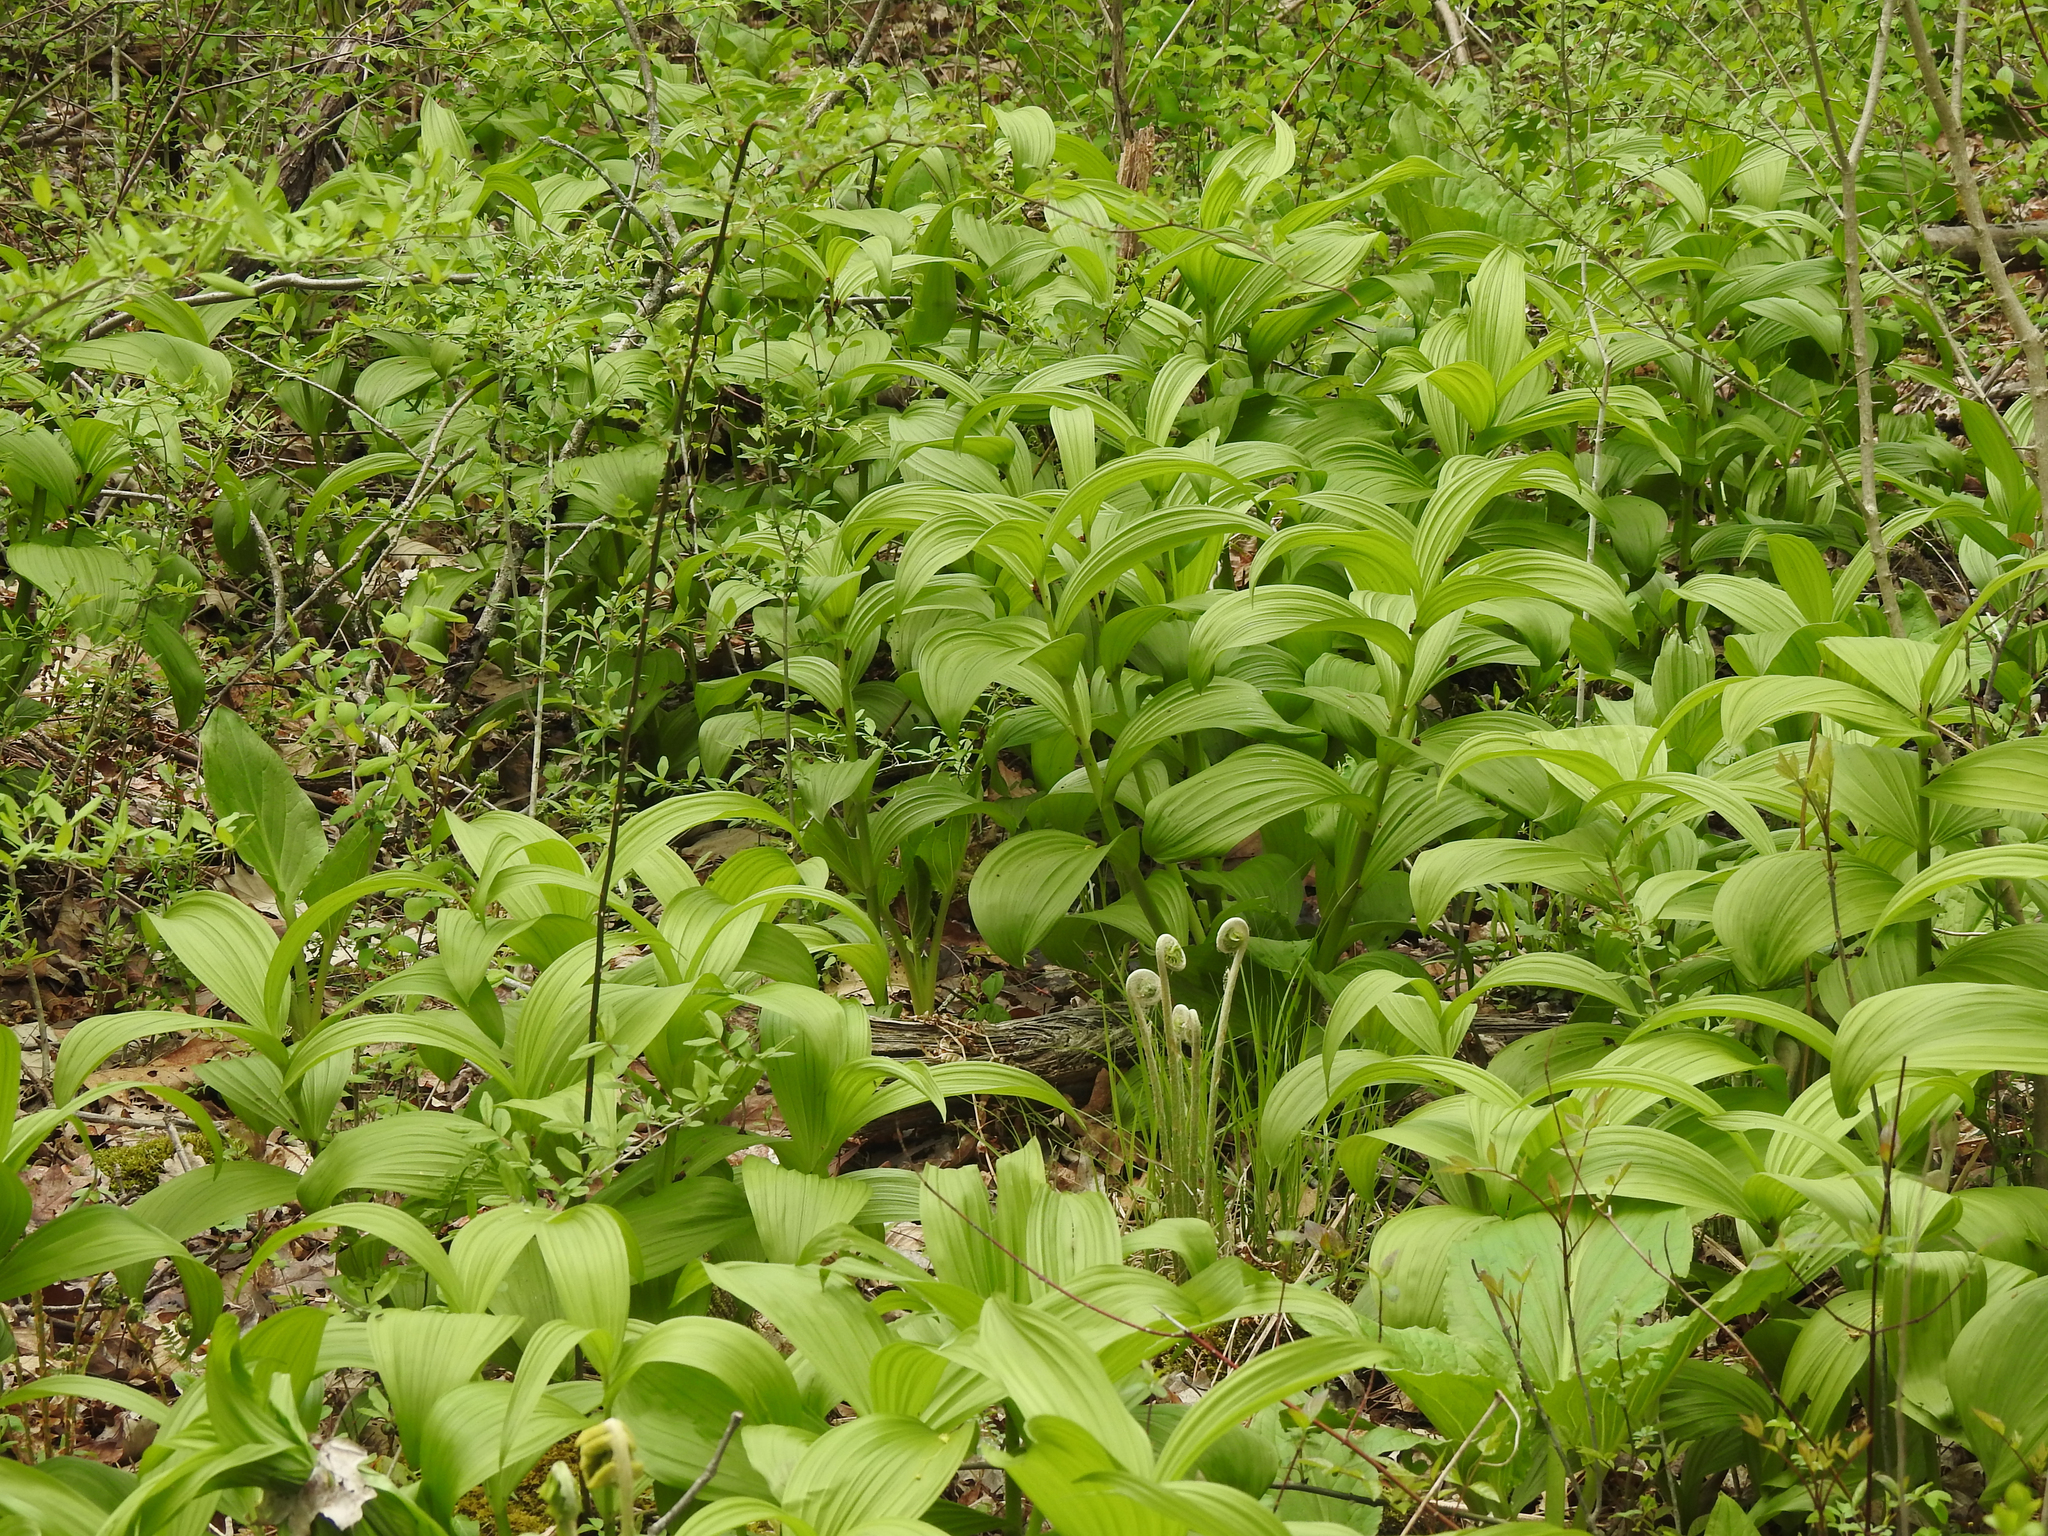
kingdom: Plantae
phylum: Tracheophyta
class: Liliopsida
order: Liliales
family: Melanthiaceae
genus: Veratrum
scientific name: Veratrum viride
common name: American false hellebore
